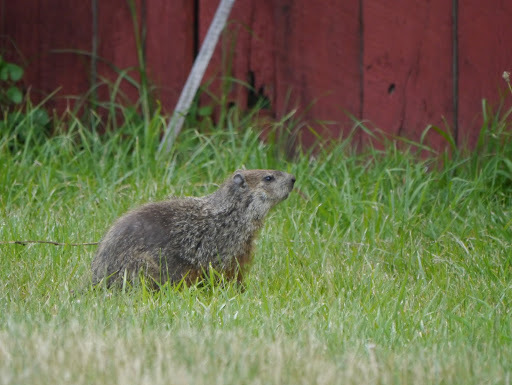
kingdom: Animalia
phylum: Chordata
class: Mammalia
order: Rodentia
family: Sciuridae
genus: Marmota
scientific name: Marmota monax
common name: Groundhog
